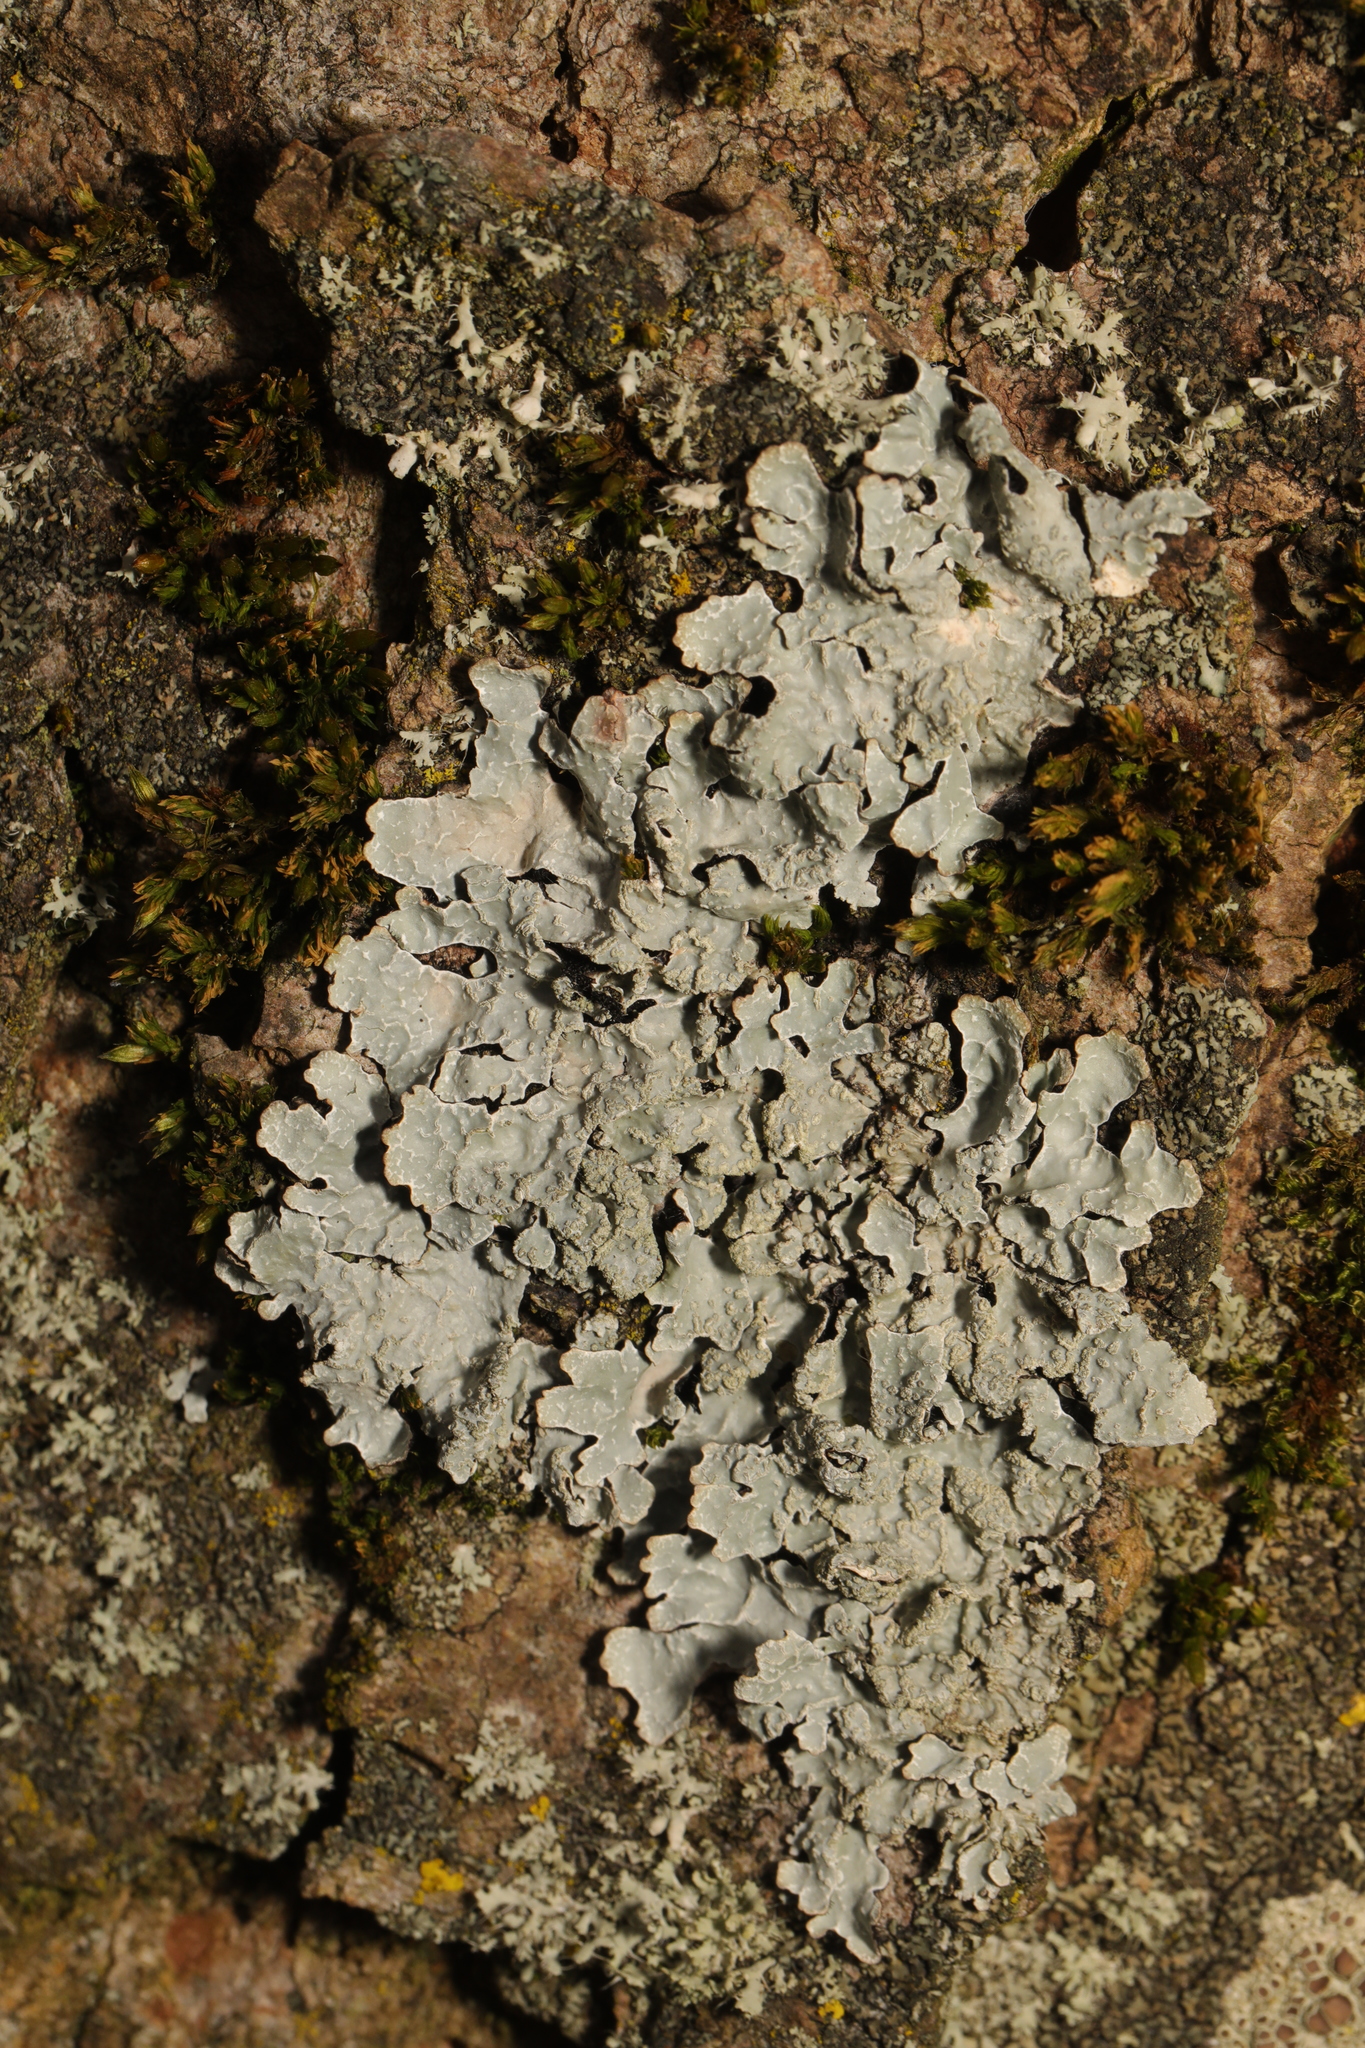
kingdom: Fungi
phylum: Ascomycota
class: Lecanoromycetes
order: Lecanorales
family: Parmeliaceae
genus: Parmelia
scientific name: Parmelia sulcata
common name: Netted shield lichen
